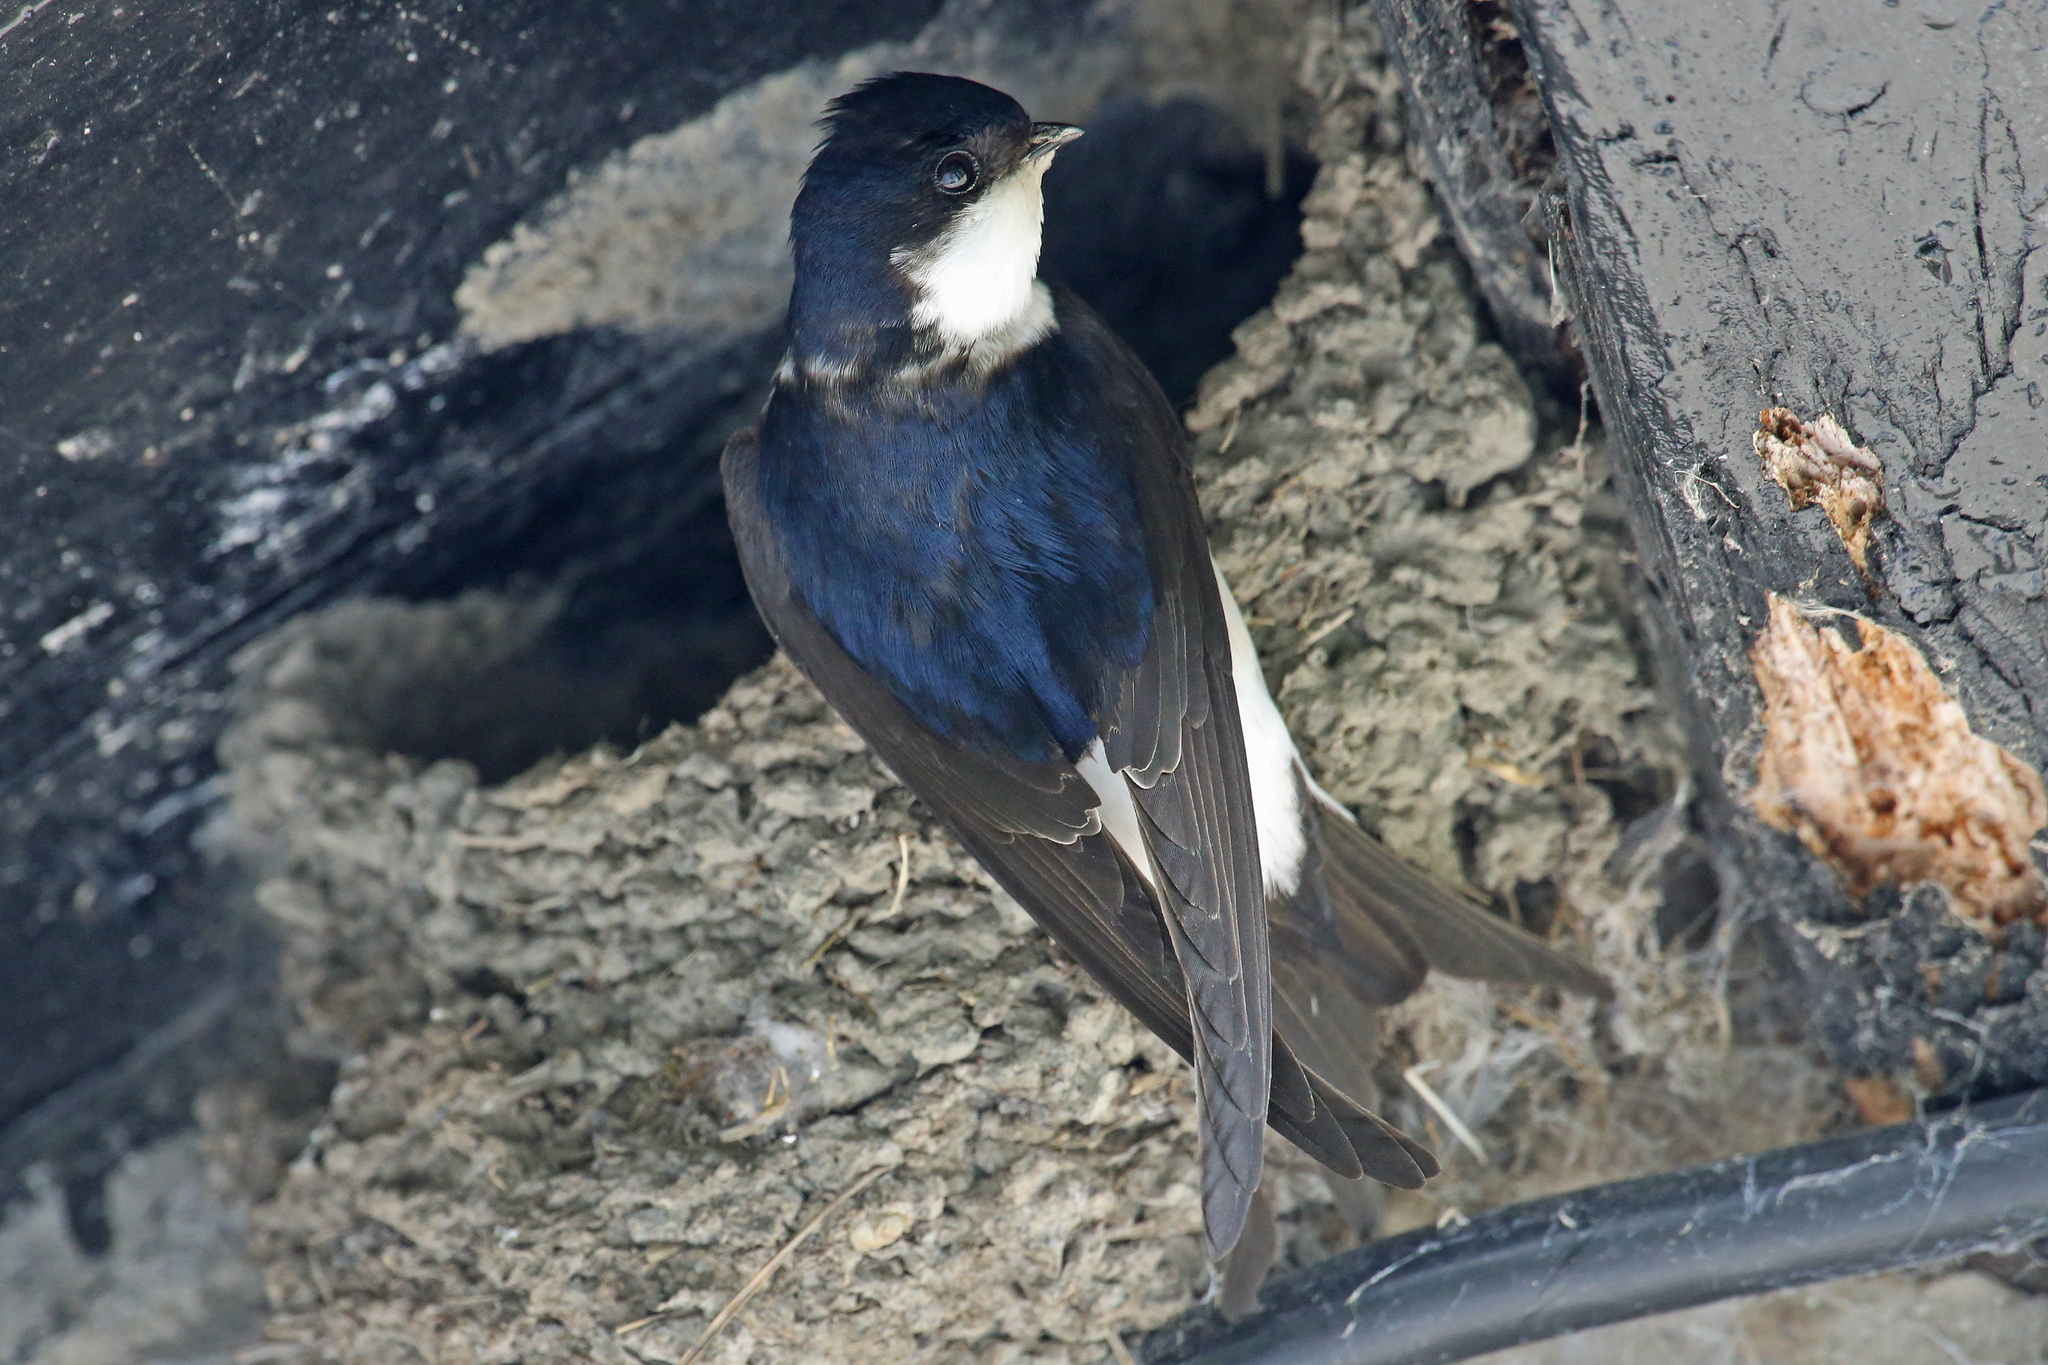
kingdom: Animalia
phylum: Chordata
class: Aves
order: Passeriformes
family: Hirundinidae
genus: Delichon
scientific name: Delichon urbicum
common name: Common house martin
